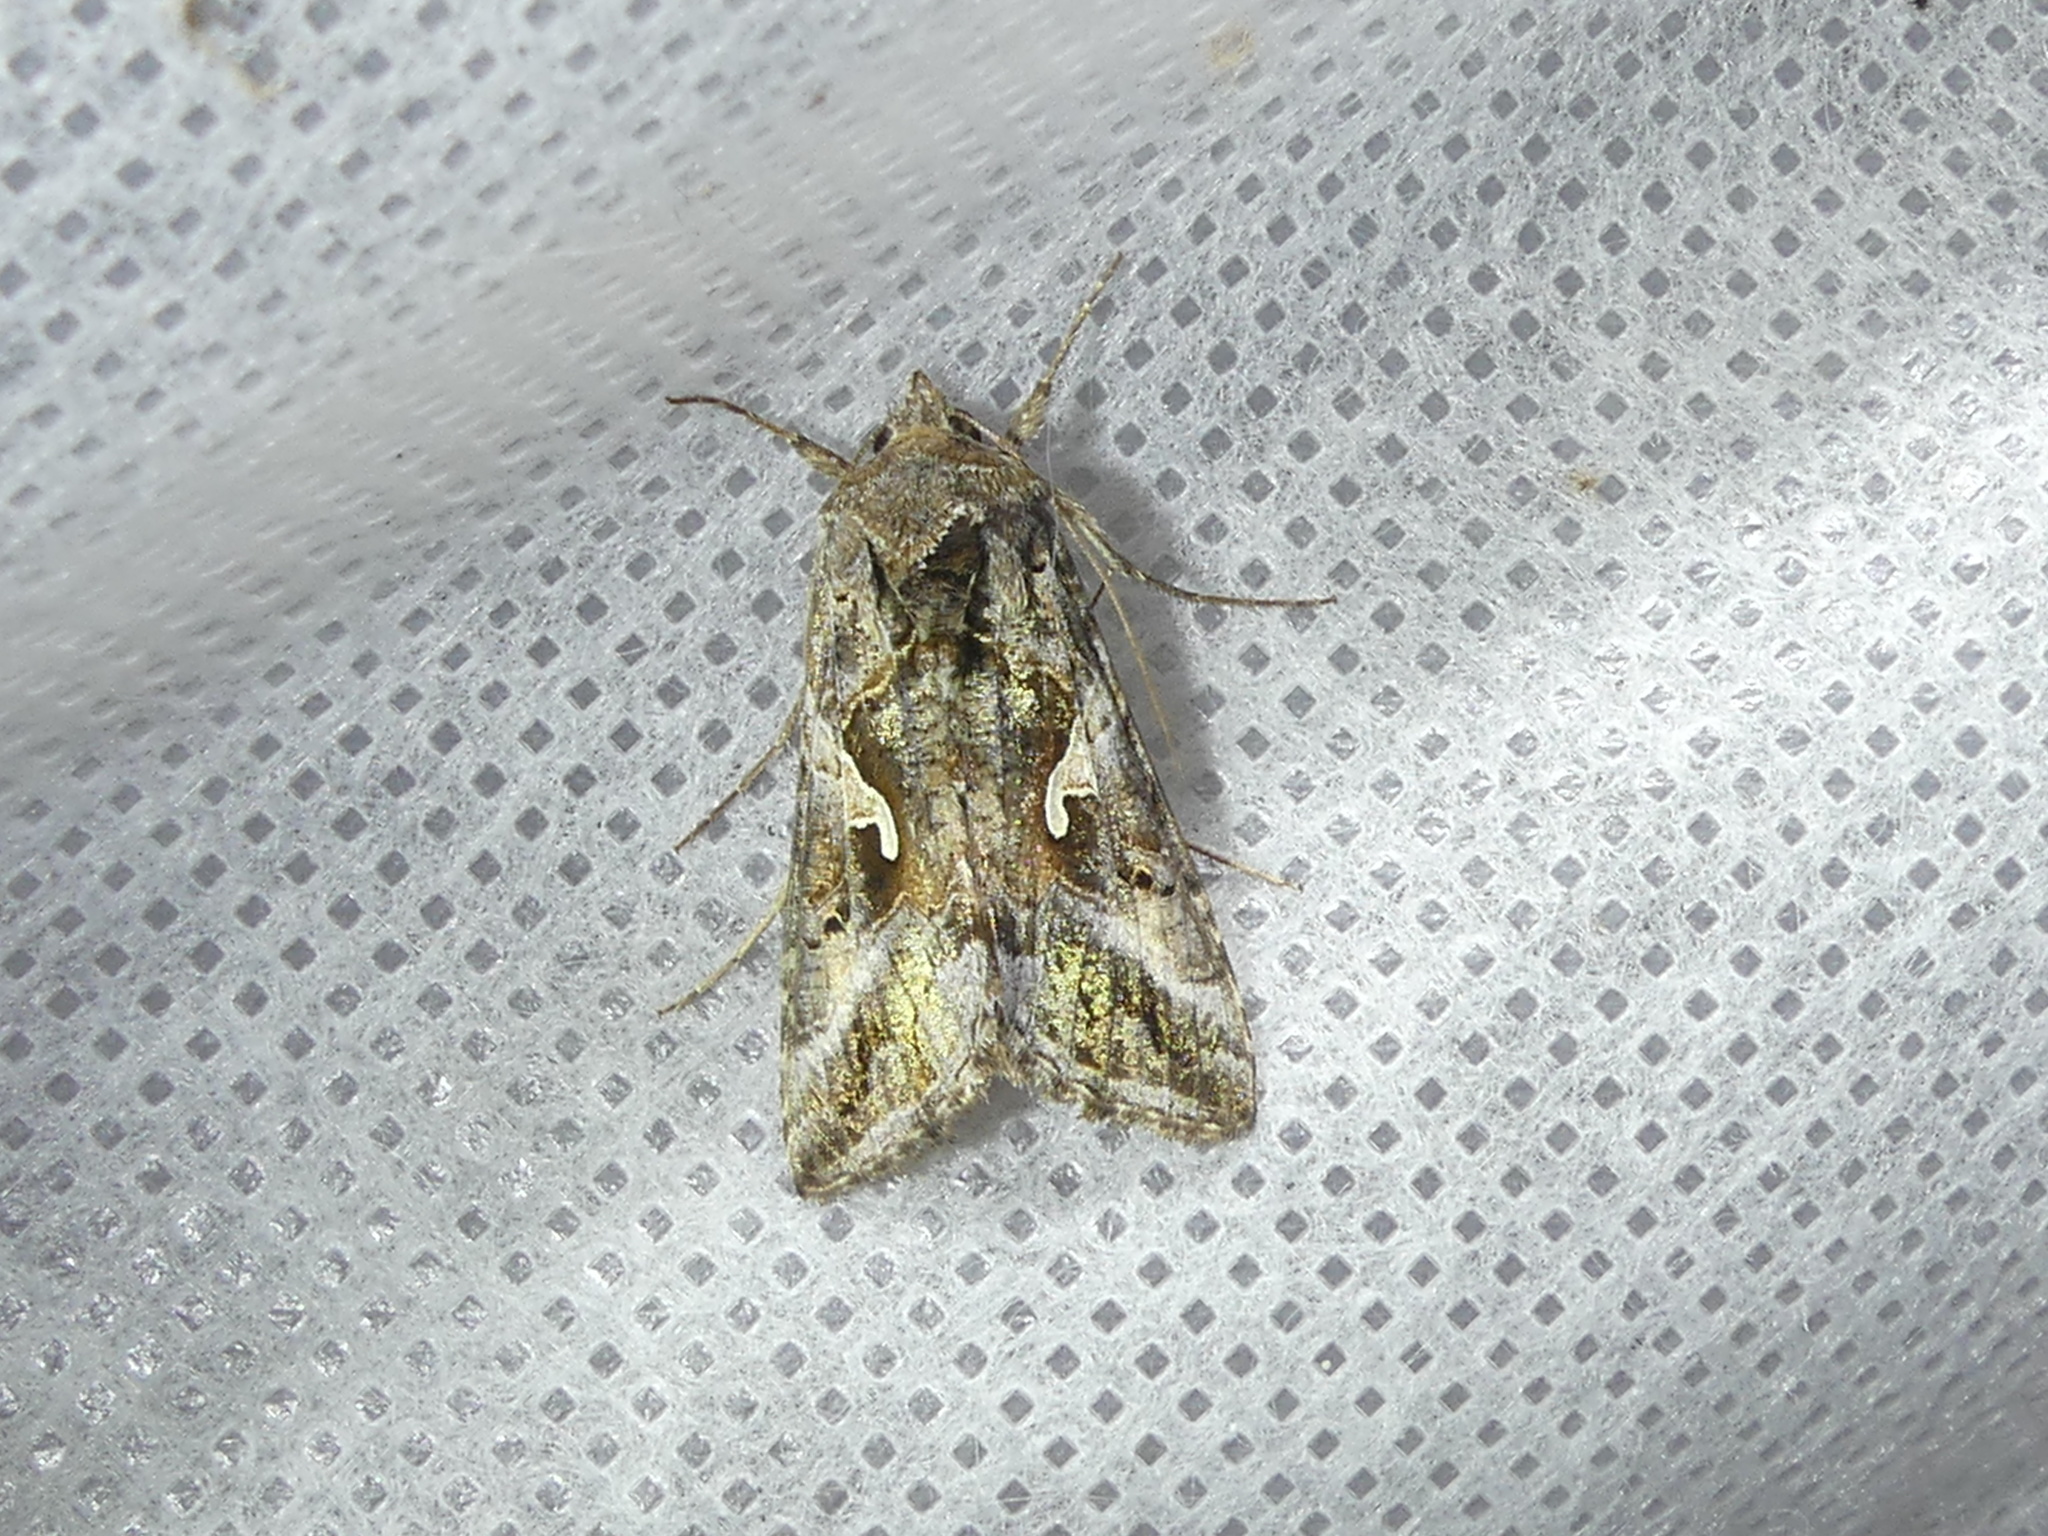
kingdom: Animalia
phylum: Arthropoda
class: Insecta
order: Lepidoptera
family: Noctuidae
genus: Autographa
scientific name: Autographa gamma
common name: Silver y
